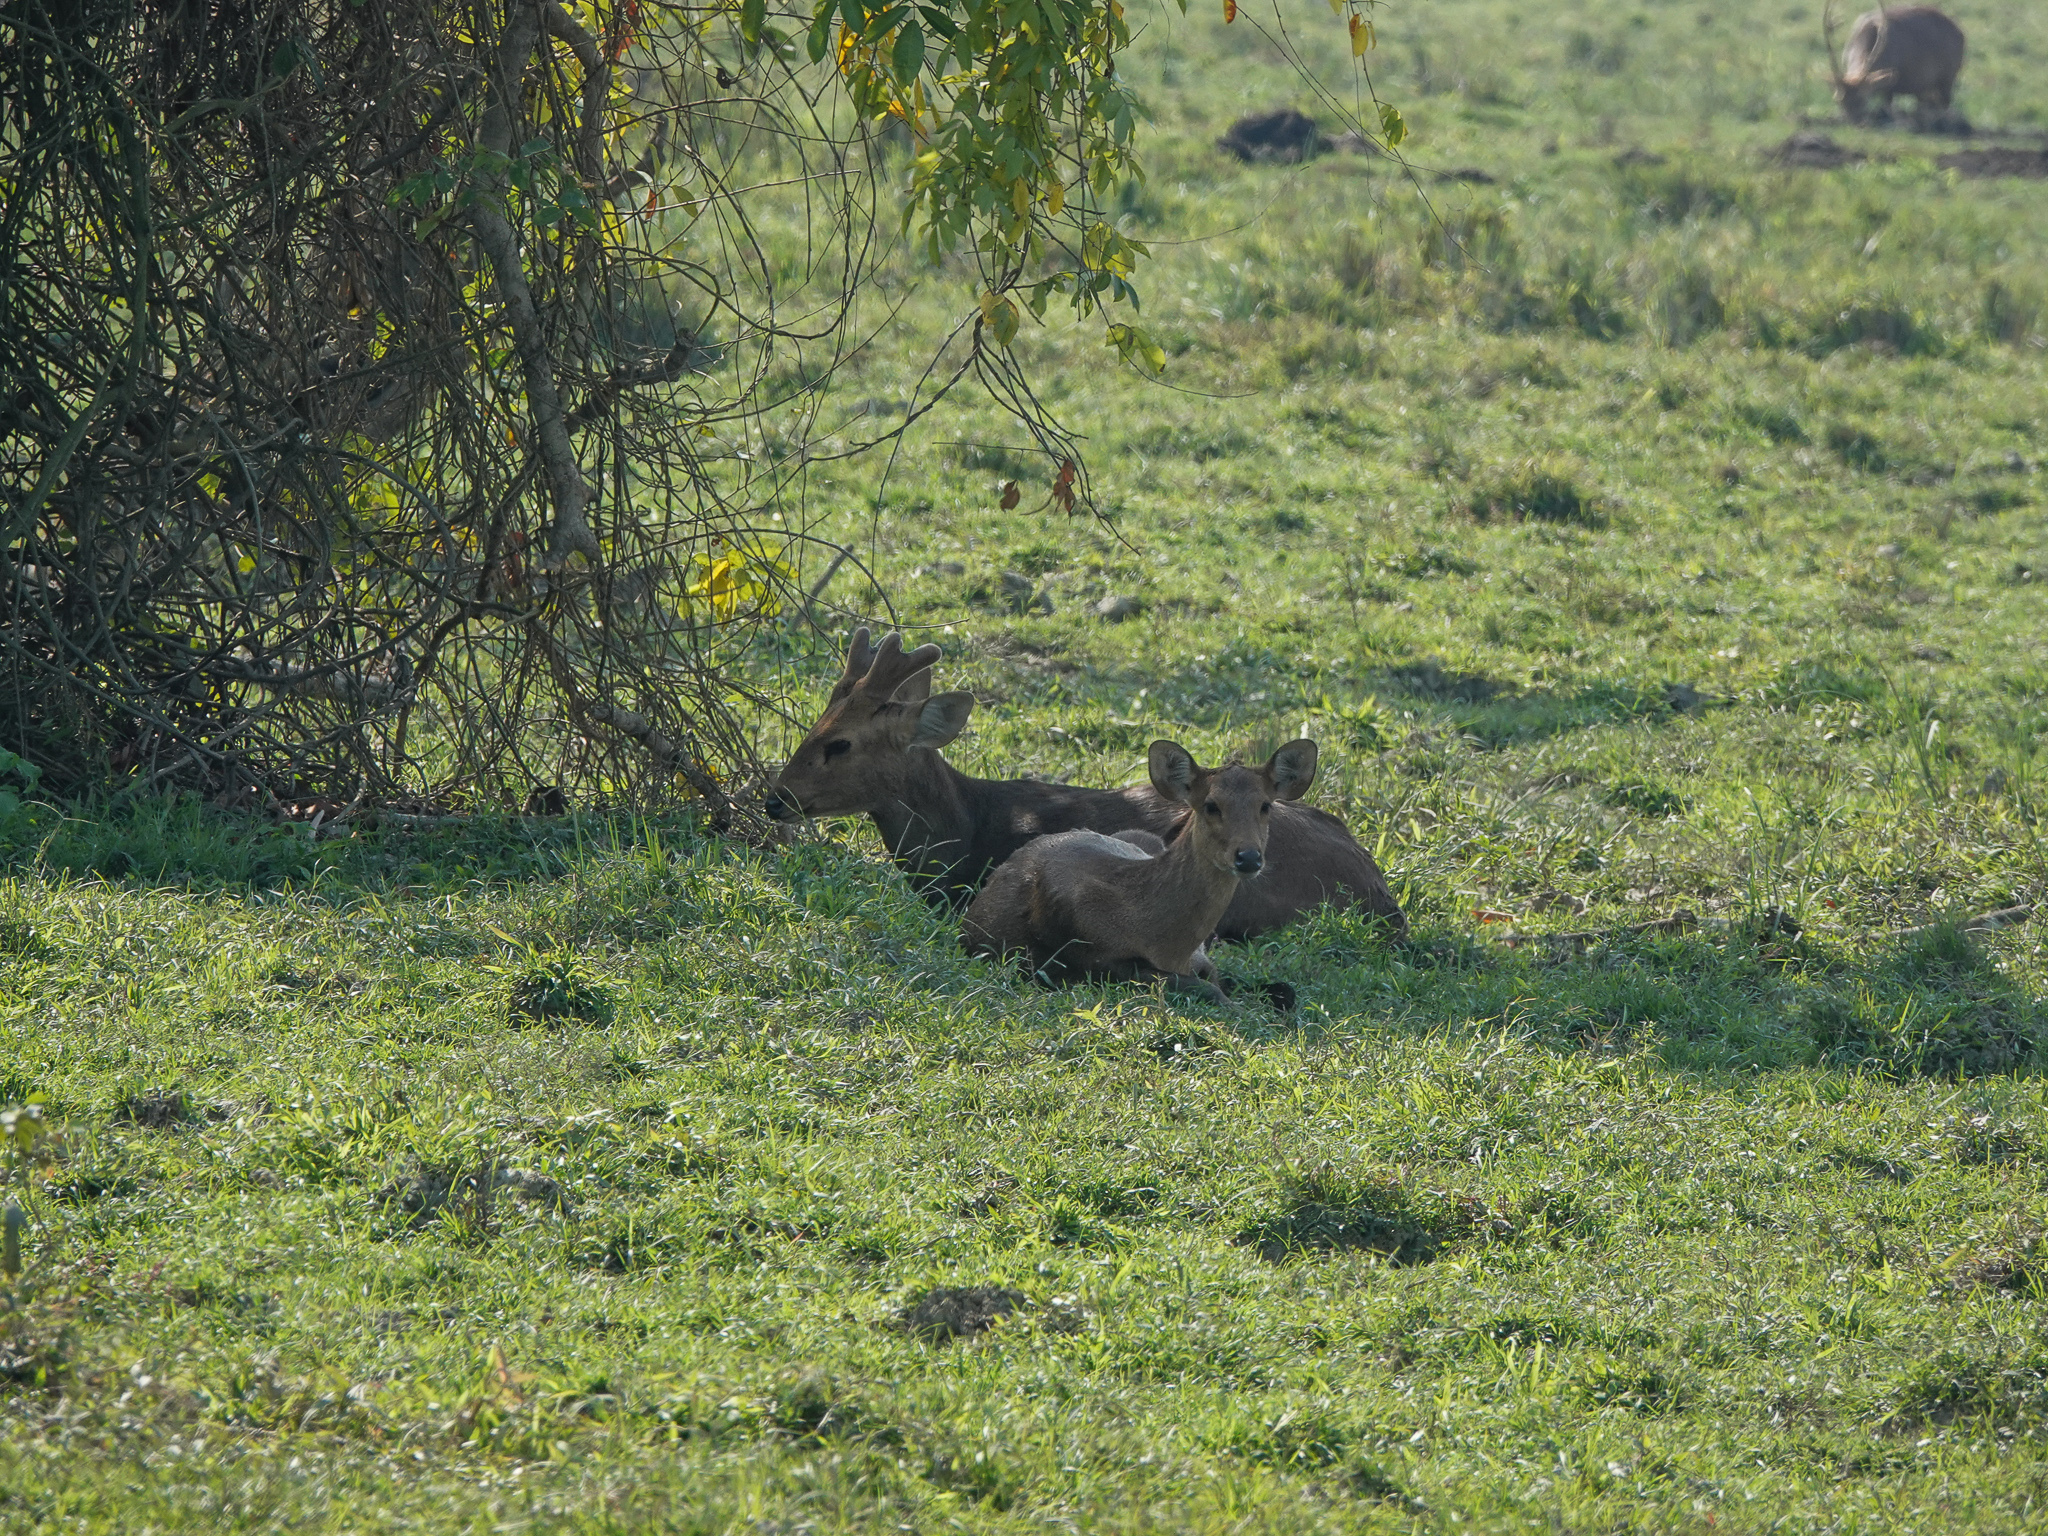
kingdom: Animalia
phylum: Chordata
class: Mammalia
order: Artiodactyla
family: Cervidae
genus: Axis
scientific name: Axis porcinus
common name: Hog deer
